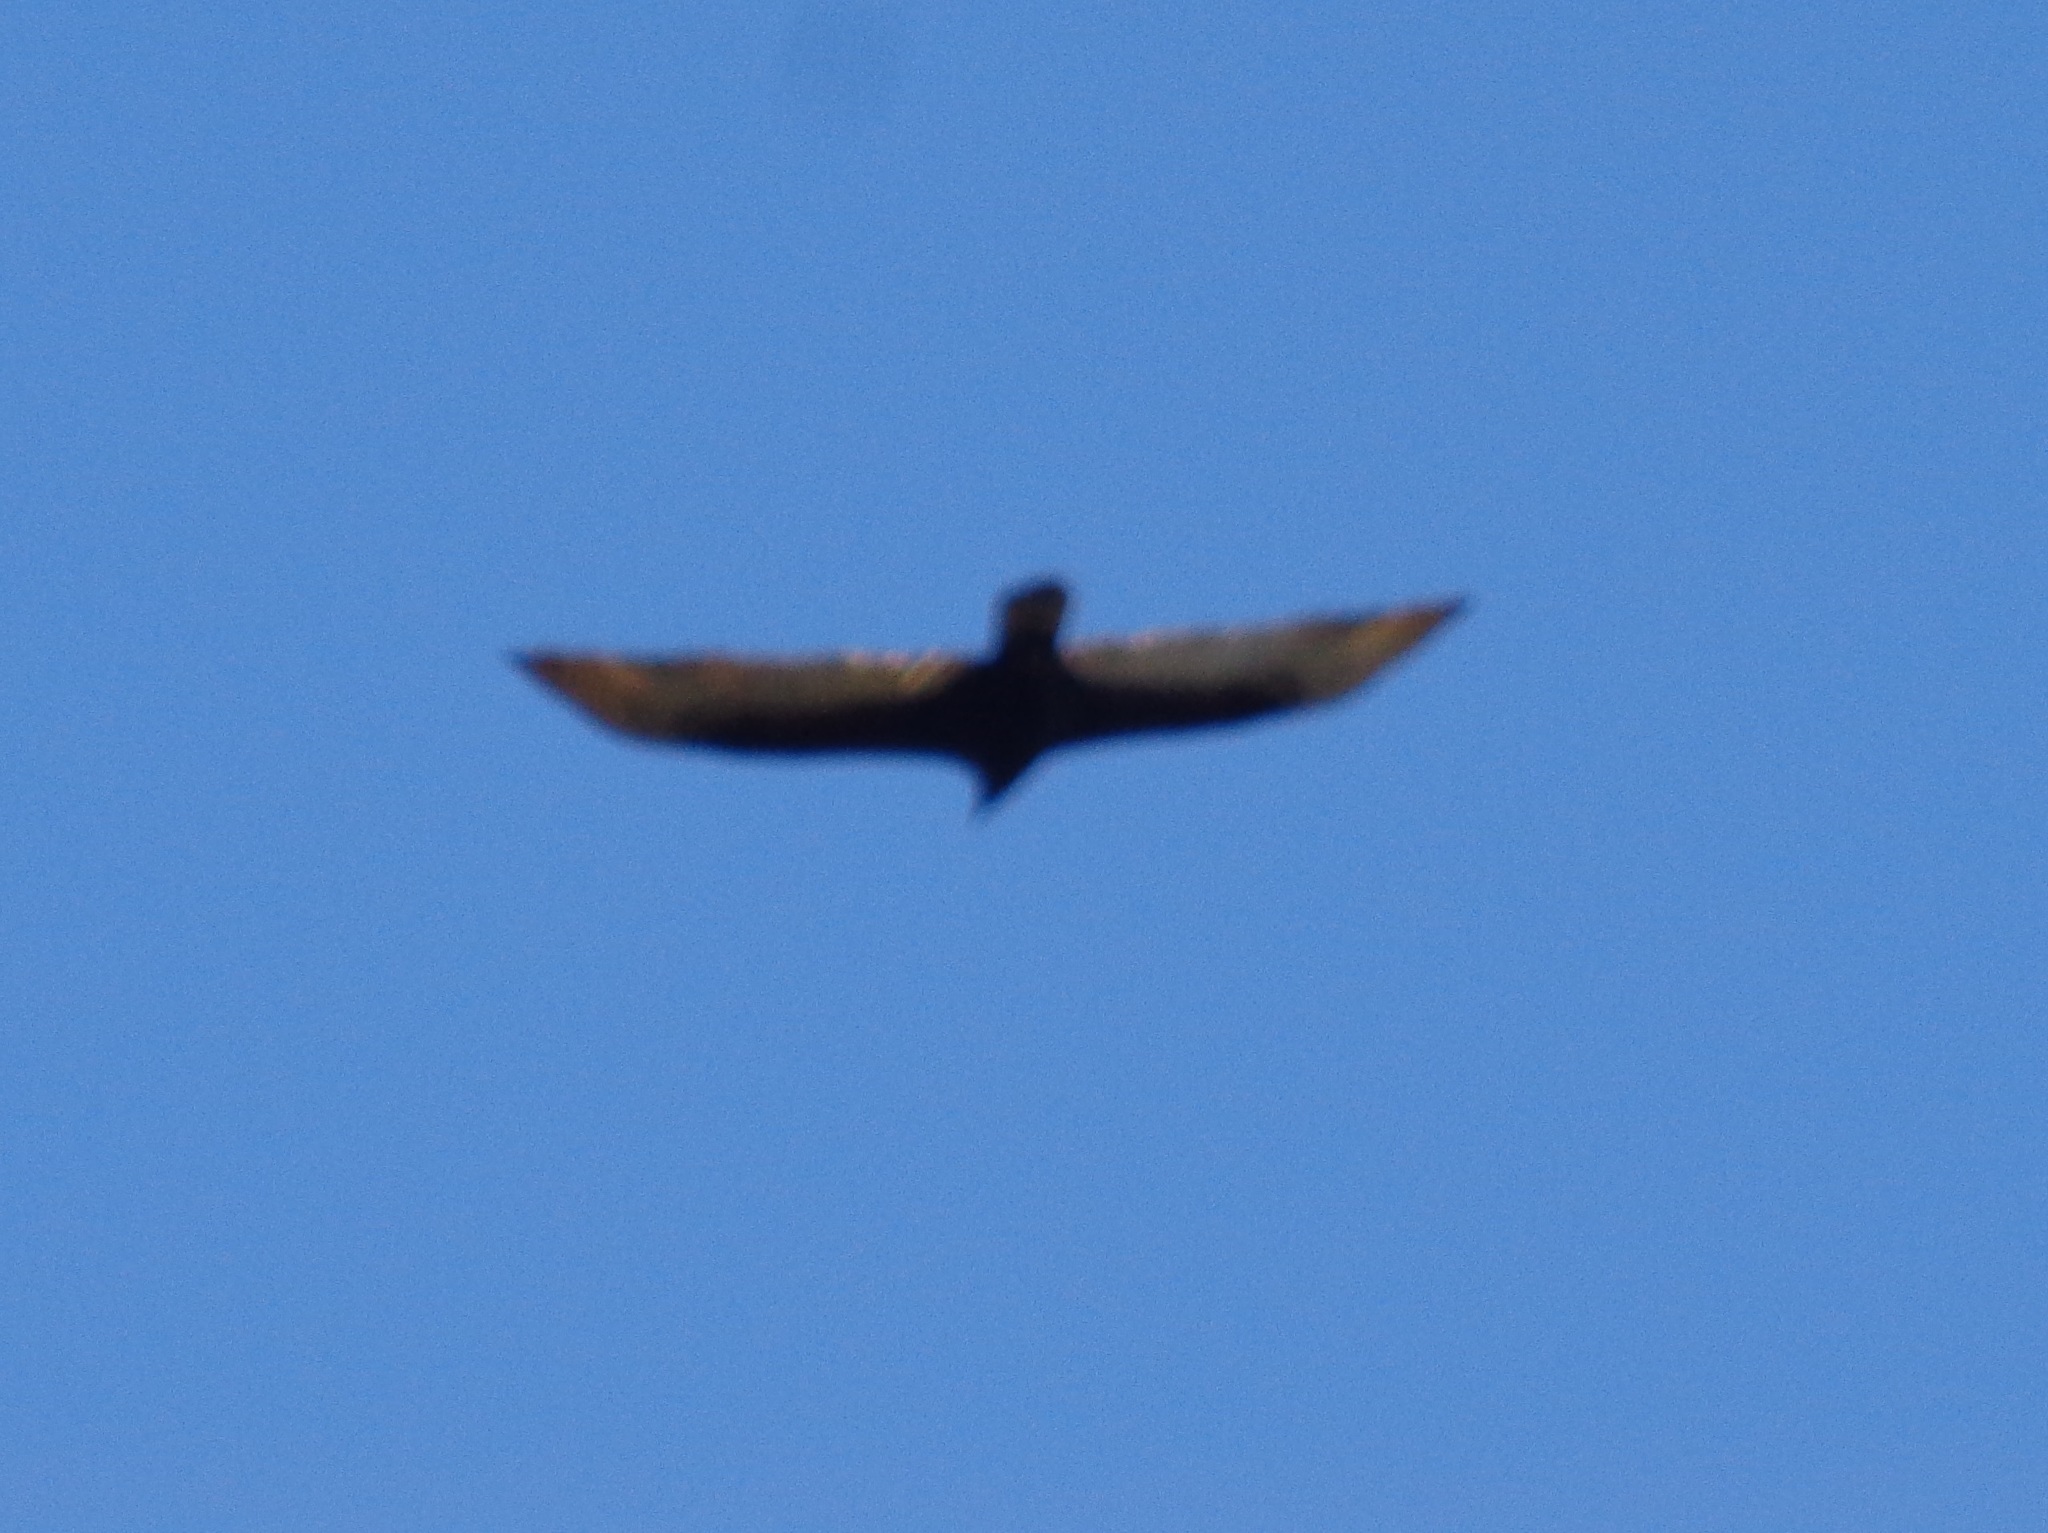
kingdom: Animalia
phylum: Chordata
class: Aves
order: Accipitriformes
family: Cathartidae
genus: Cathartes
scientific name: Cathartes aura
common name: Turkey vulture
